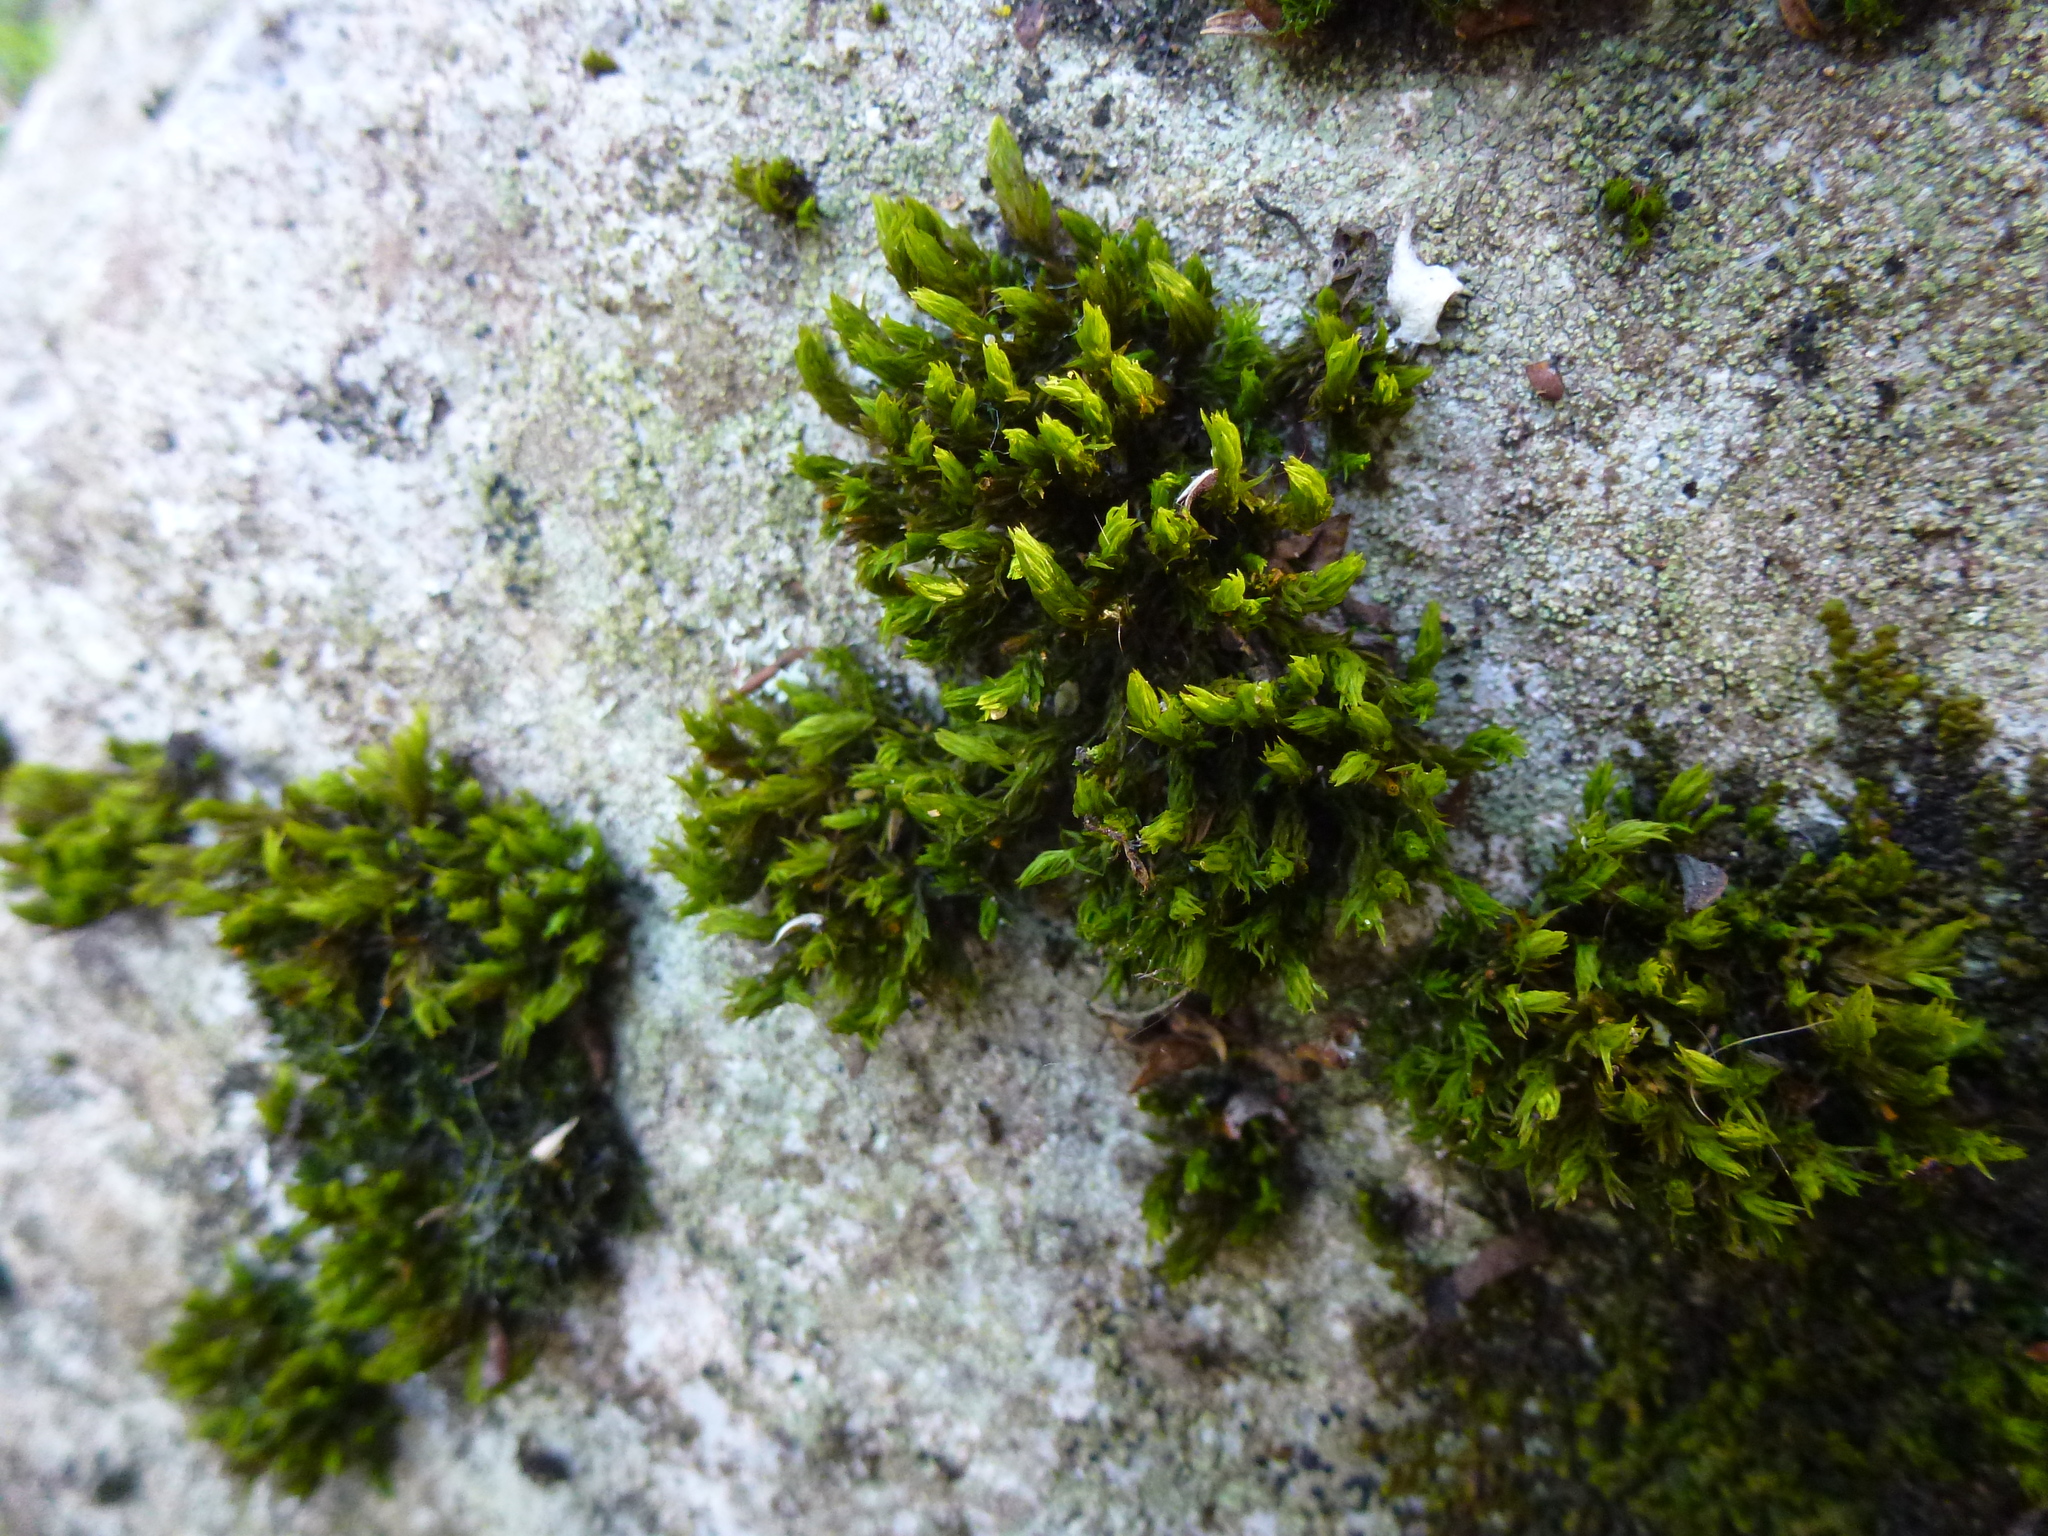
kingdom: Plantae
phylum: Bryophyta
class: Bryopsida
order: Orthotrichales
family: Orthotrichaceae
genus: Lewinskya
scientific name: Lewinskya affinis
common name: Wood bristle-moss
